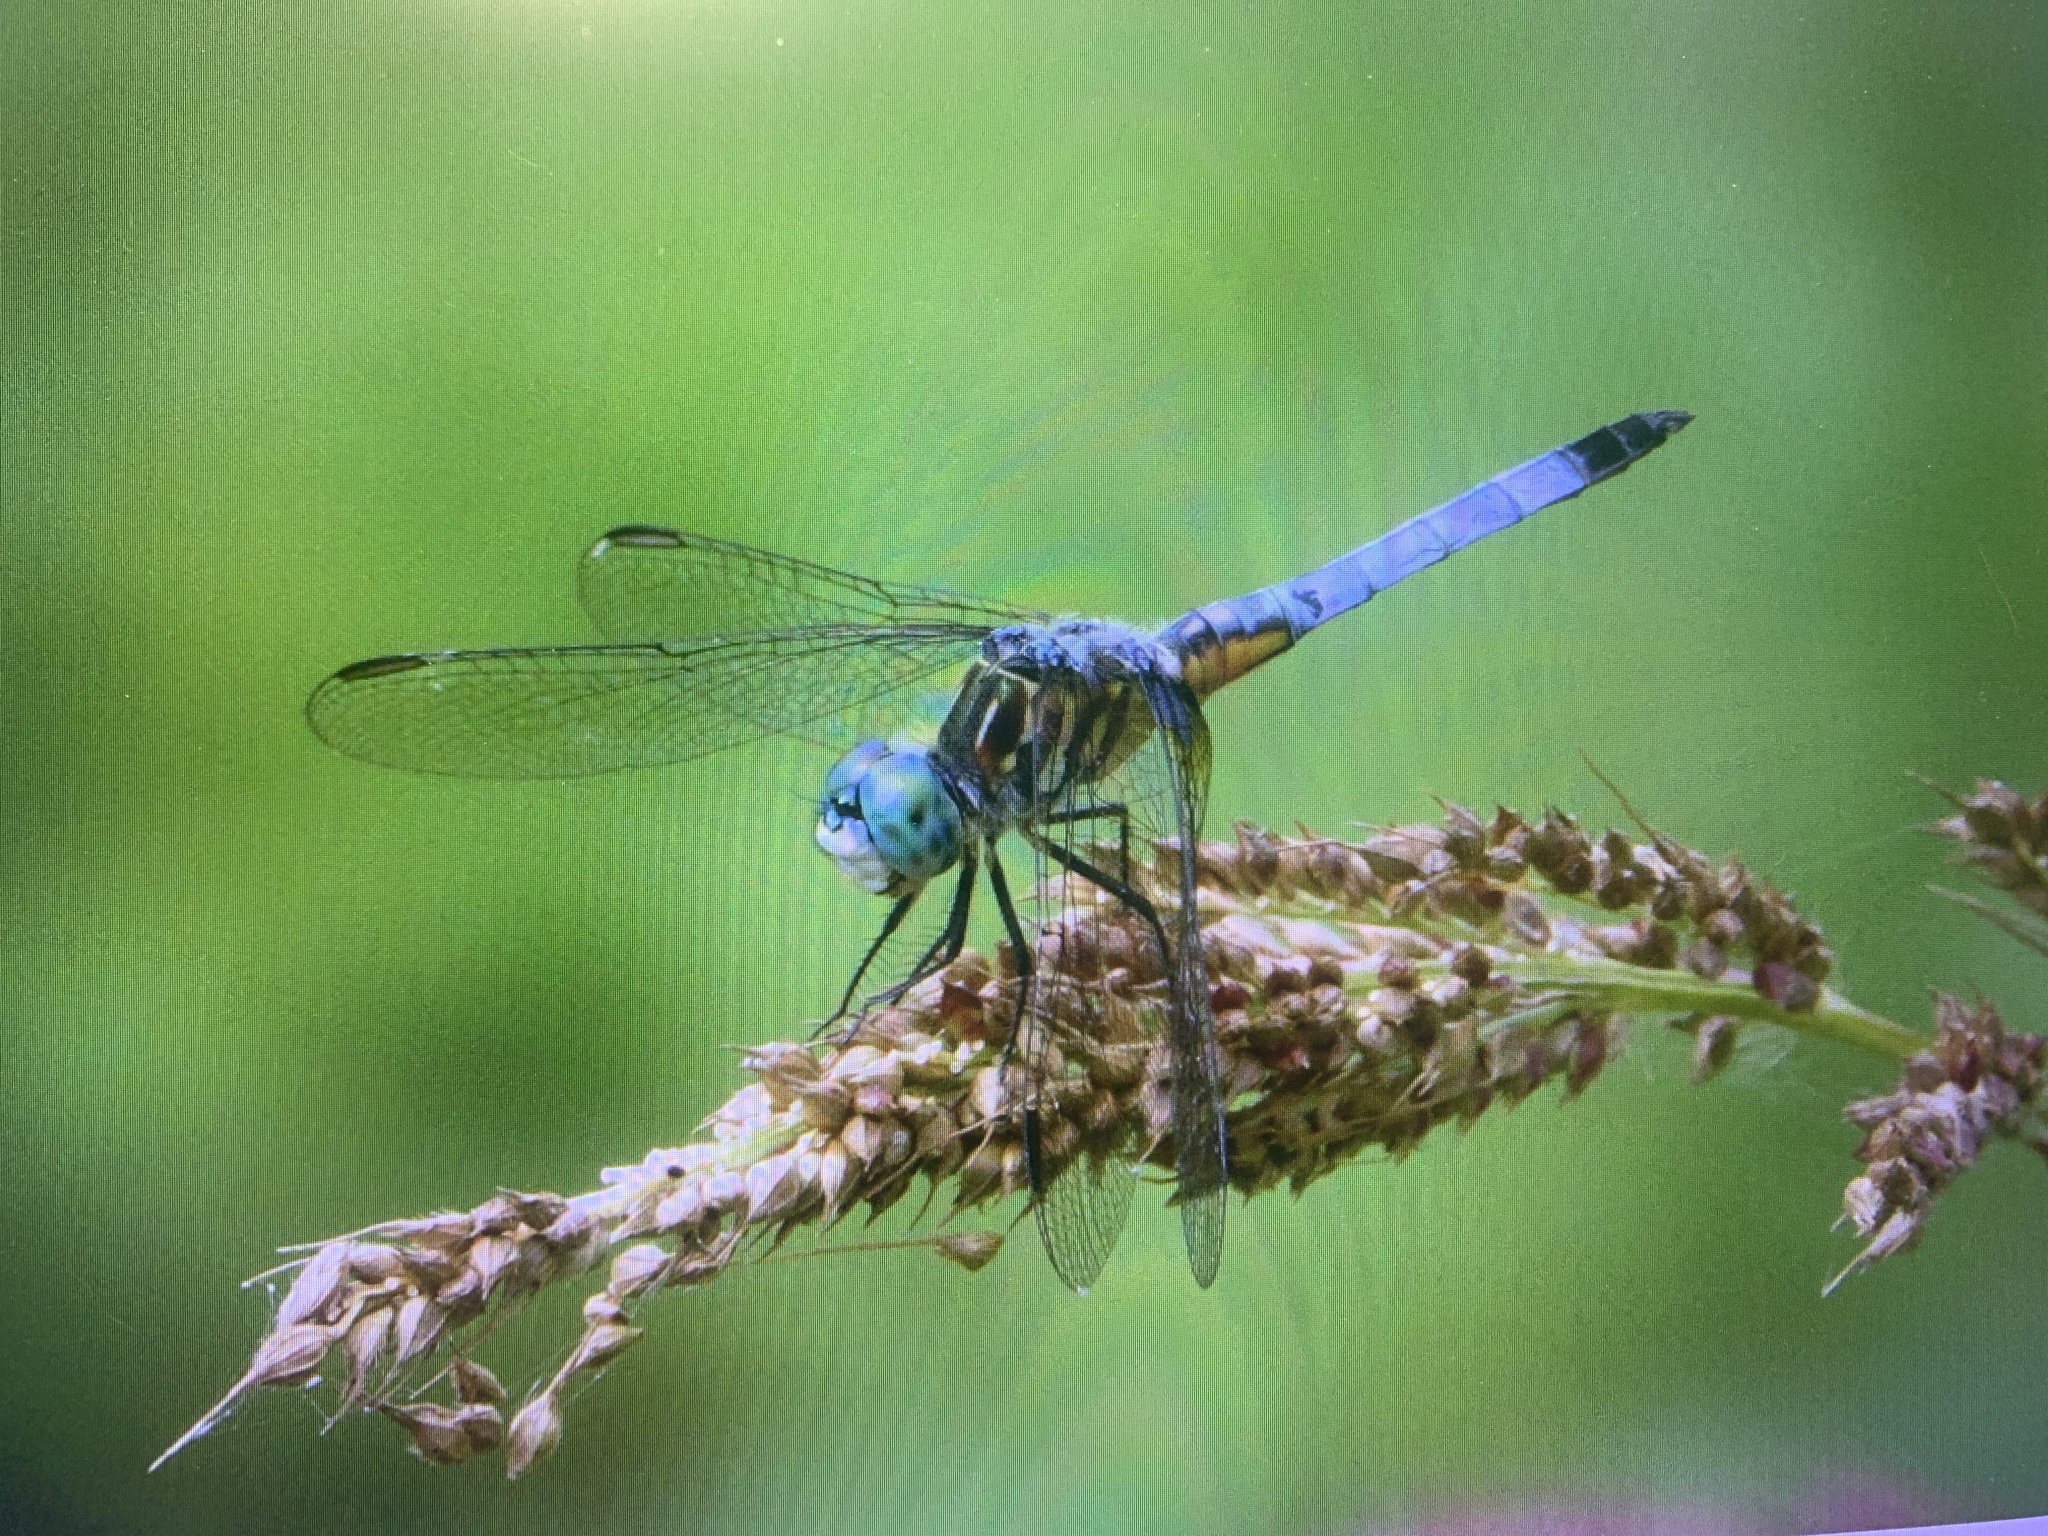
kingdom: Animalia
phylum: Arthropoda
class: Insecta
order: Odonata
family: Libellulidae
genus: Pachydiplax
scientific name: Pachydiplax longipennis
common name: Blue dasher
